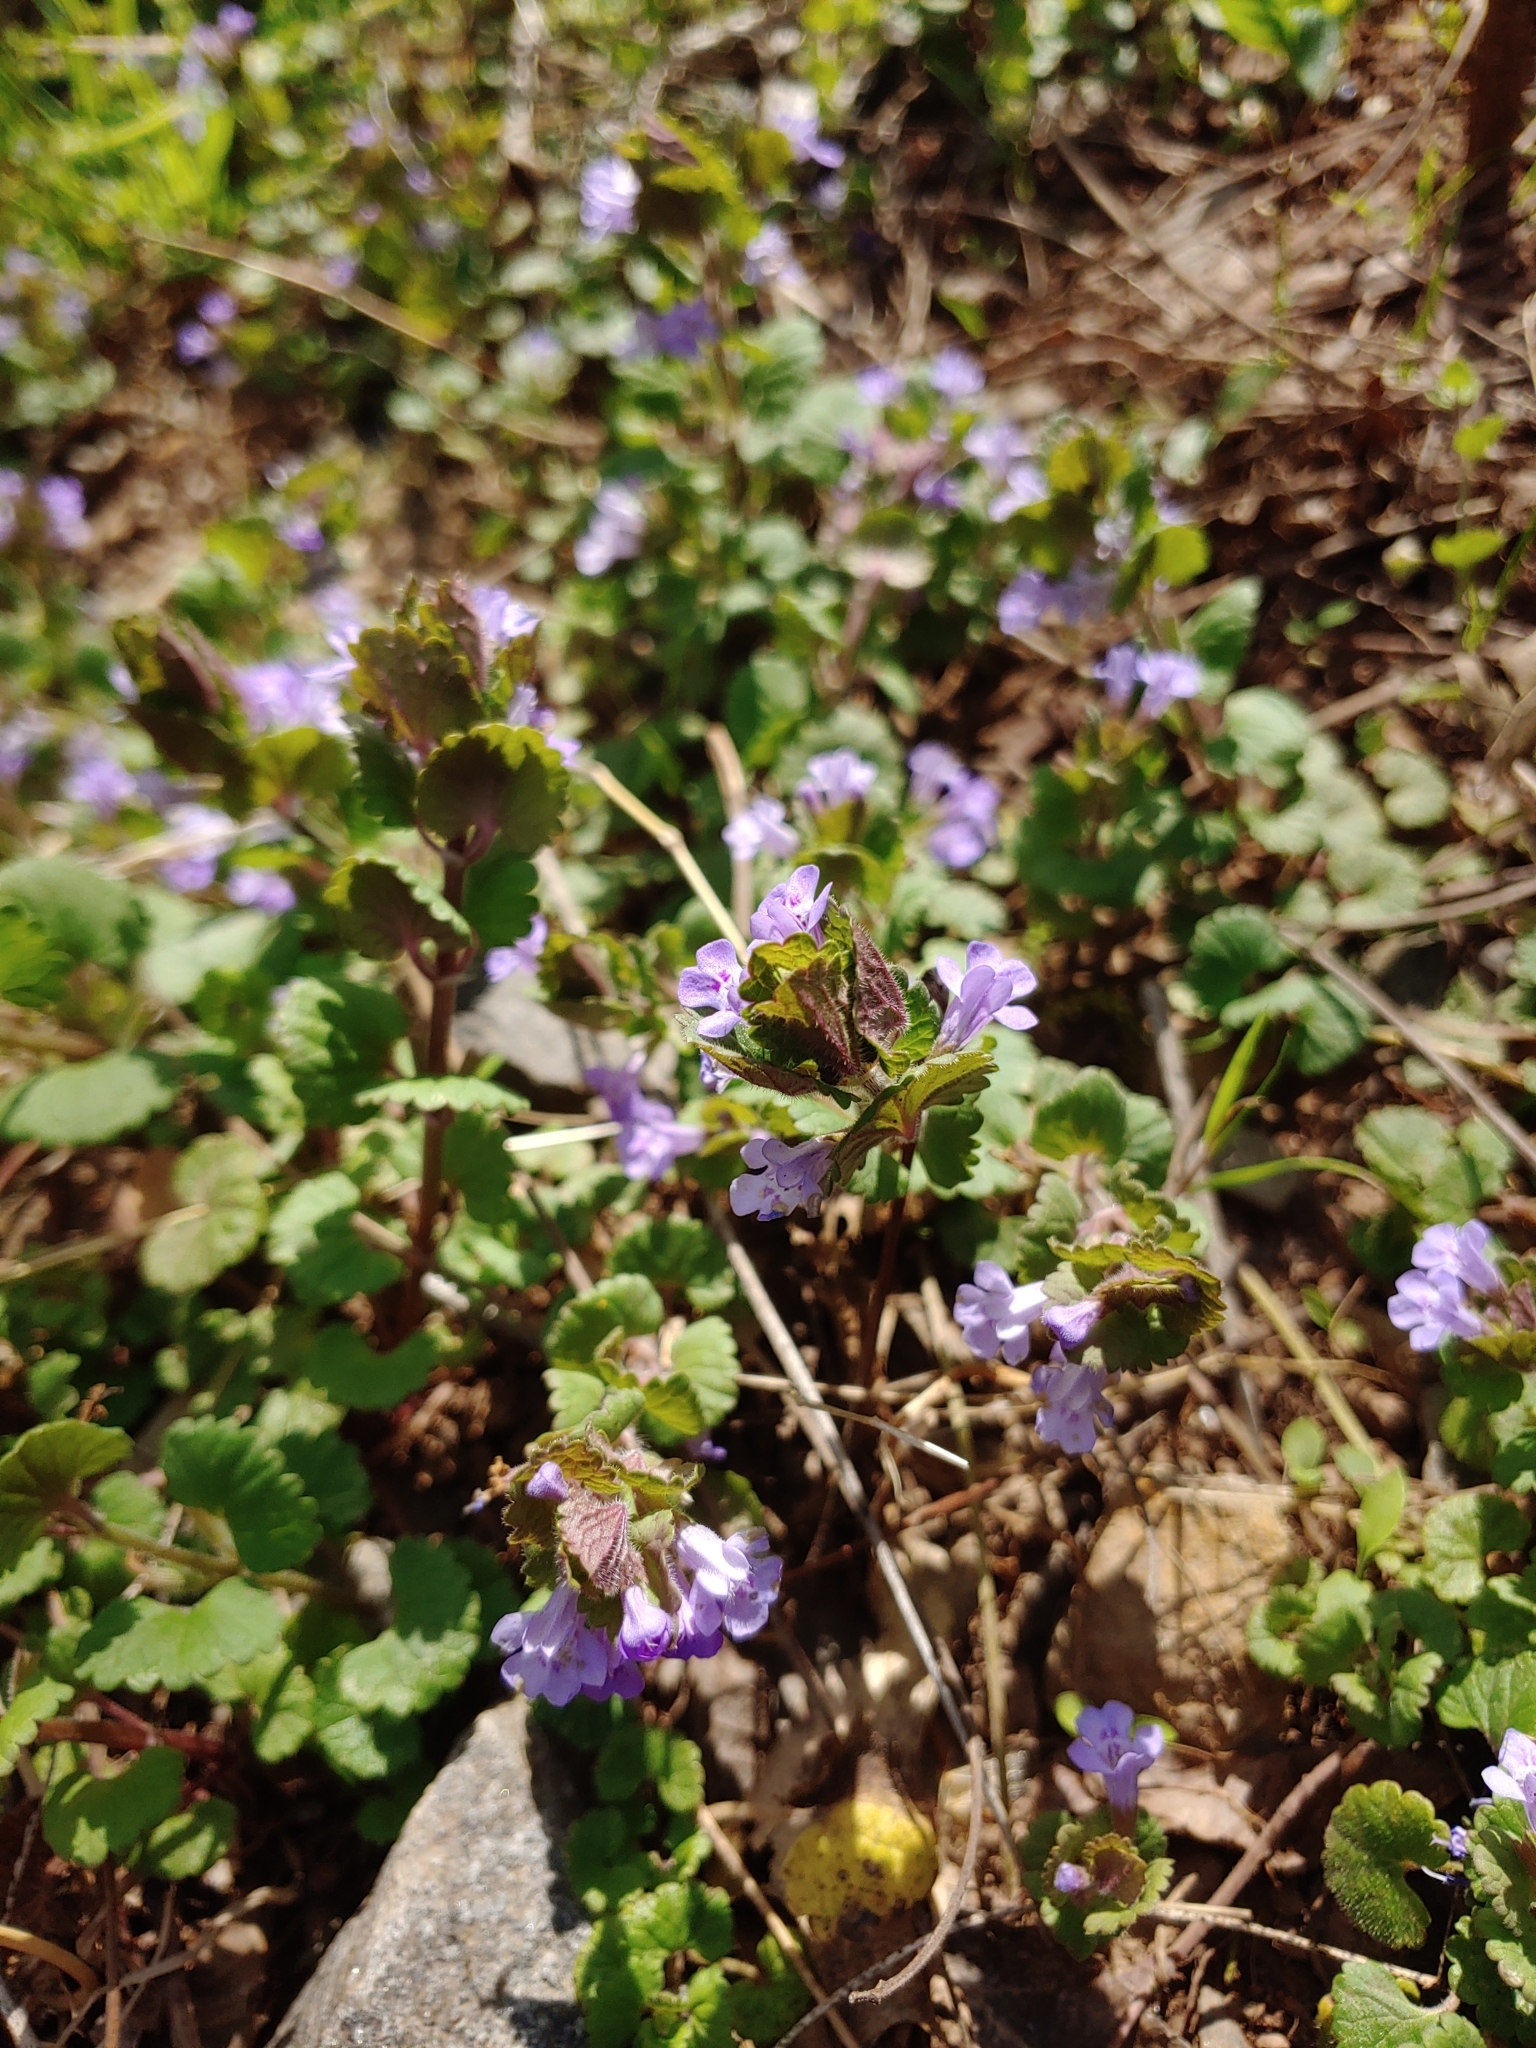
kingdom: Plantae
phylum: Tracheophyta
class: Magnoliopsida
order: Lamiales
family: Lamiaceae
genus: Glechoma
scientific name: Glechoma hederacea
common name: Ground ivy
